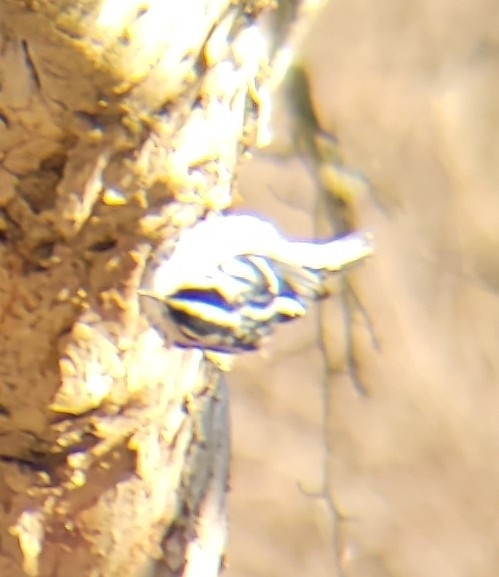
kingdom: Animalia
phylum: Chordata
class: Aves
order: Passeriformes
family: Parulidae
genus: Mniotilta
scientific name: Mniotilta varia
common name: Black-and-white warbler
